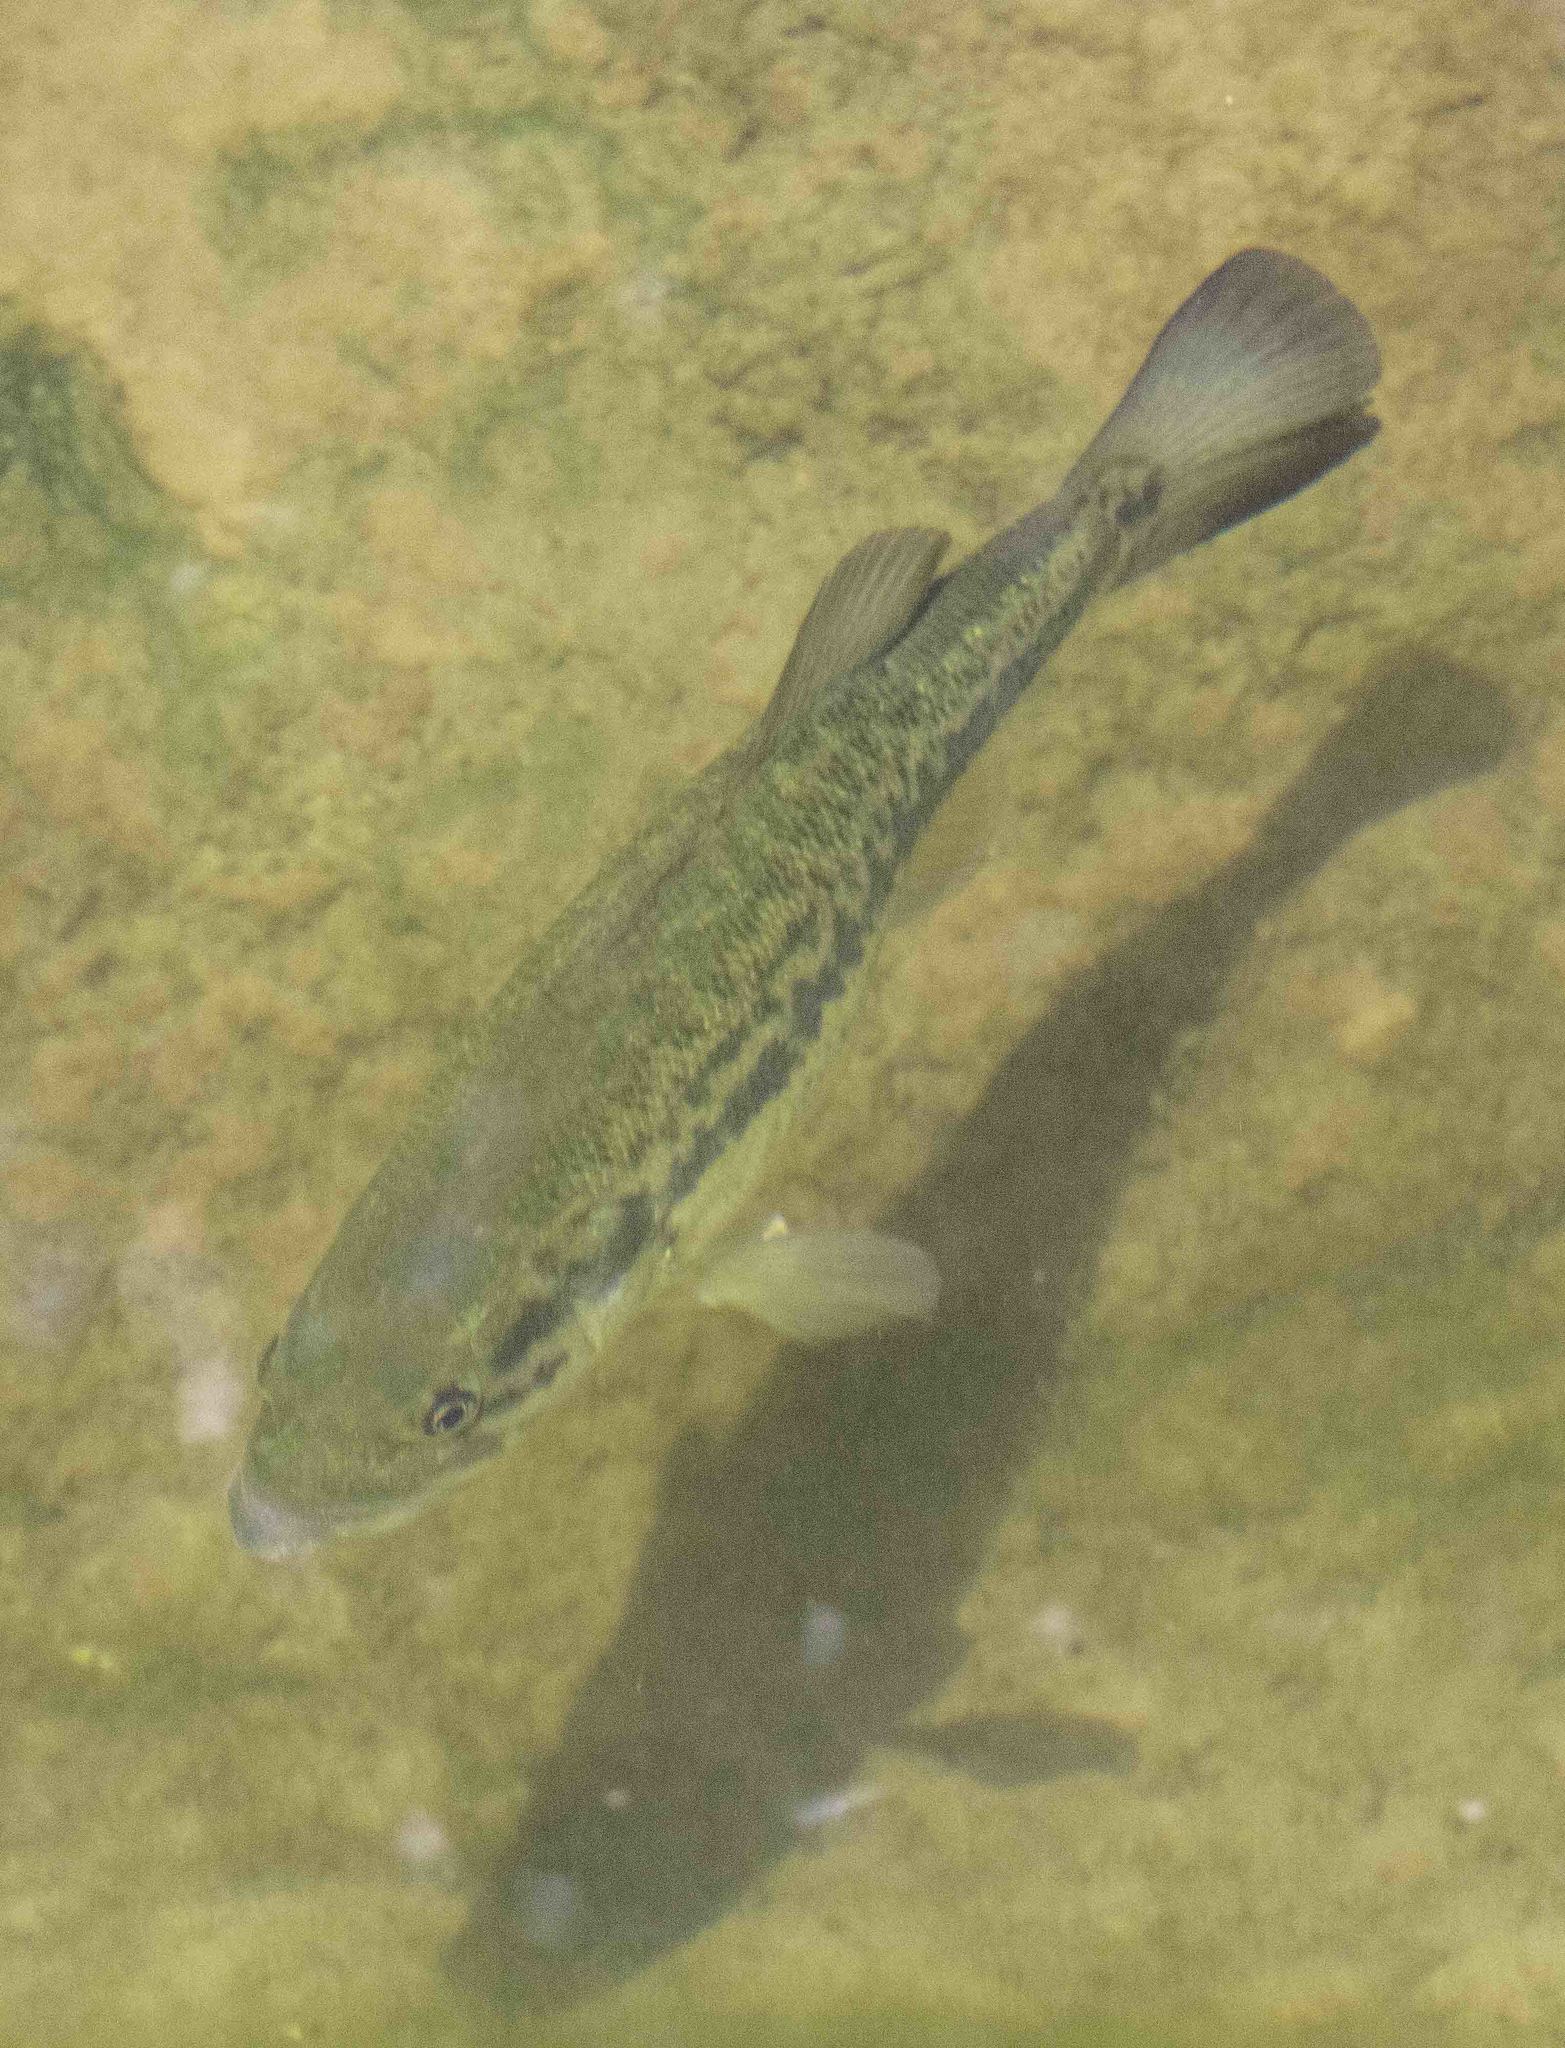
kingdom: Animalia
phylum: Chordata
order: Perciformes
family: Centrarchidae
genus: Micropterus
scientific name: Micropterus
